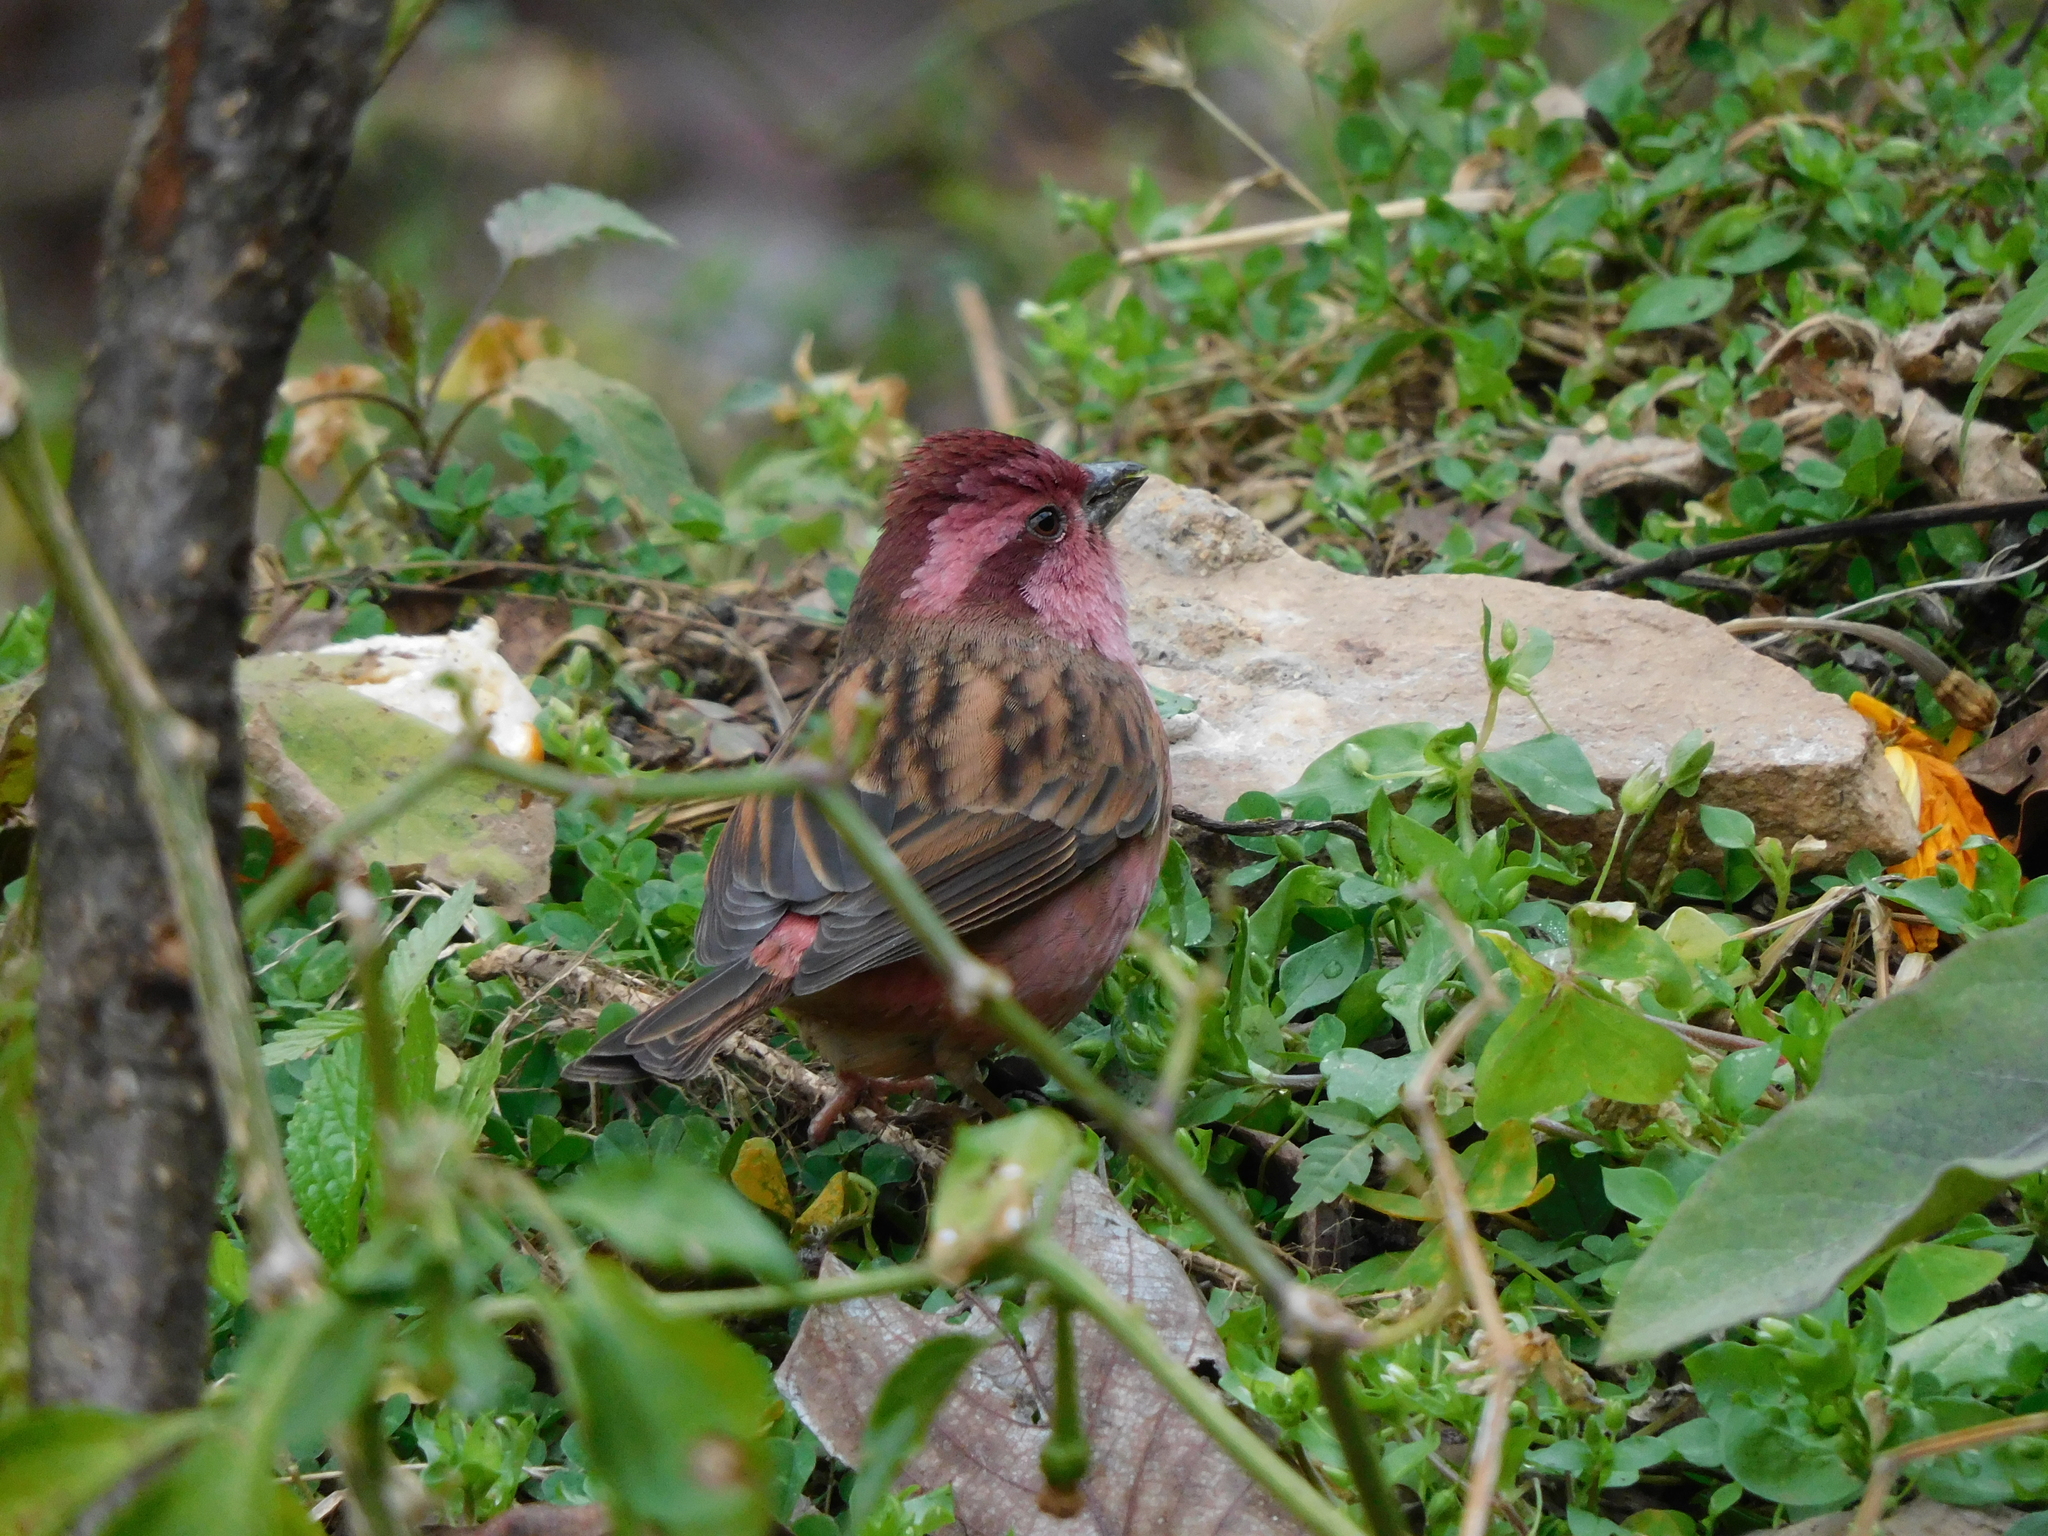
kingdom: Animalia
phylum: Chordata
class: Aves
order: Passeriformes
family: Fringillidae
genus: Carpodacus
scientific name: Carpodacus rodochroa
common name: Pink-browed rosefinch
